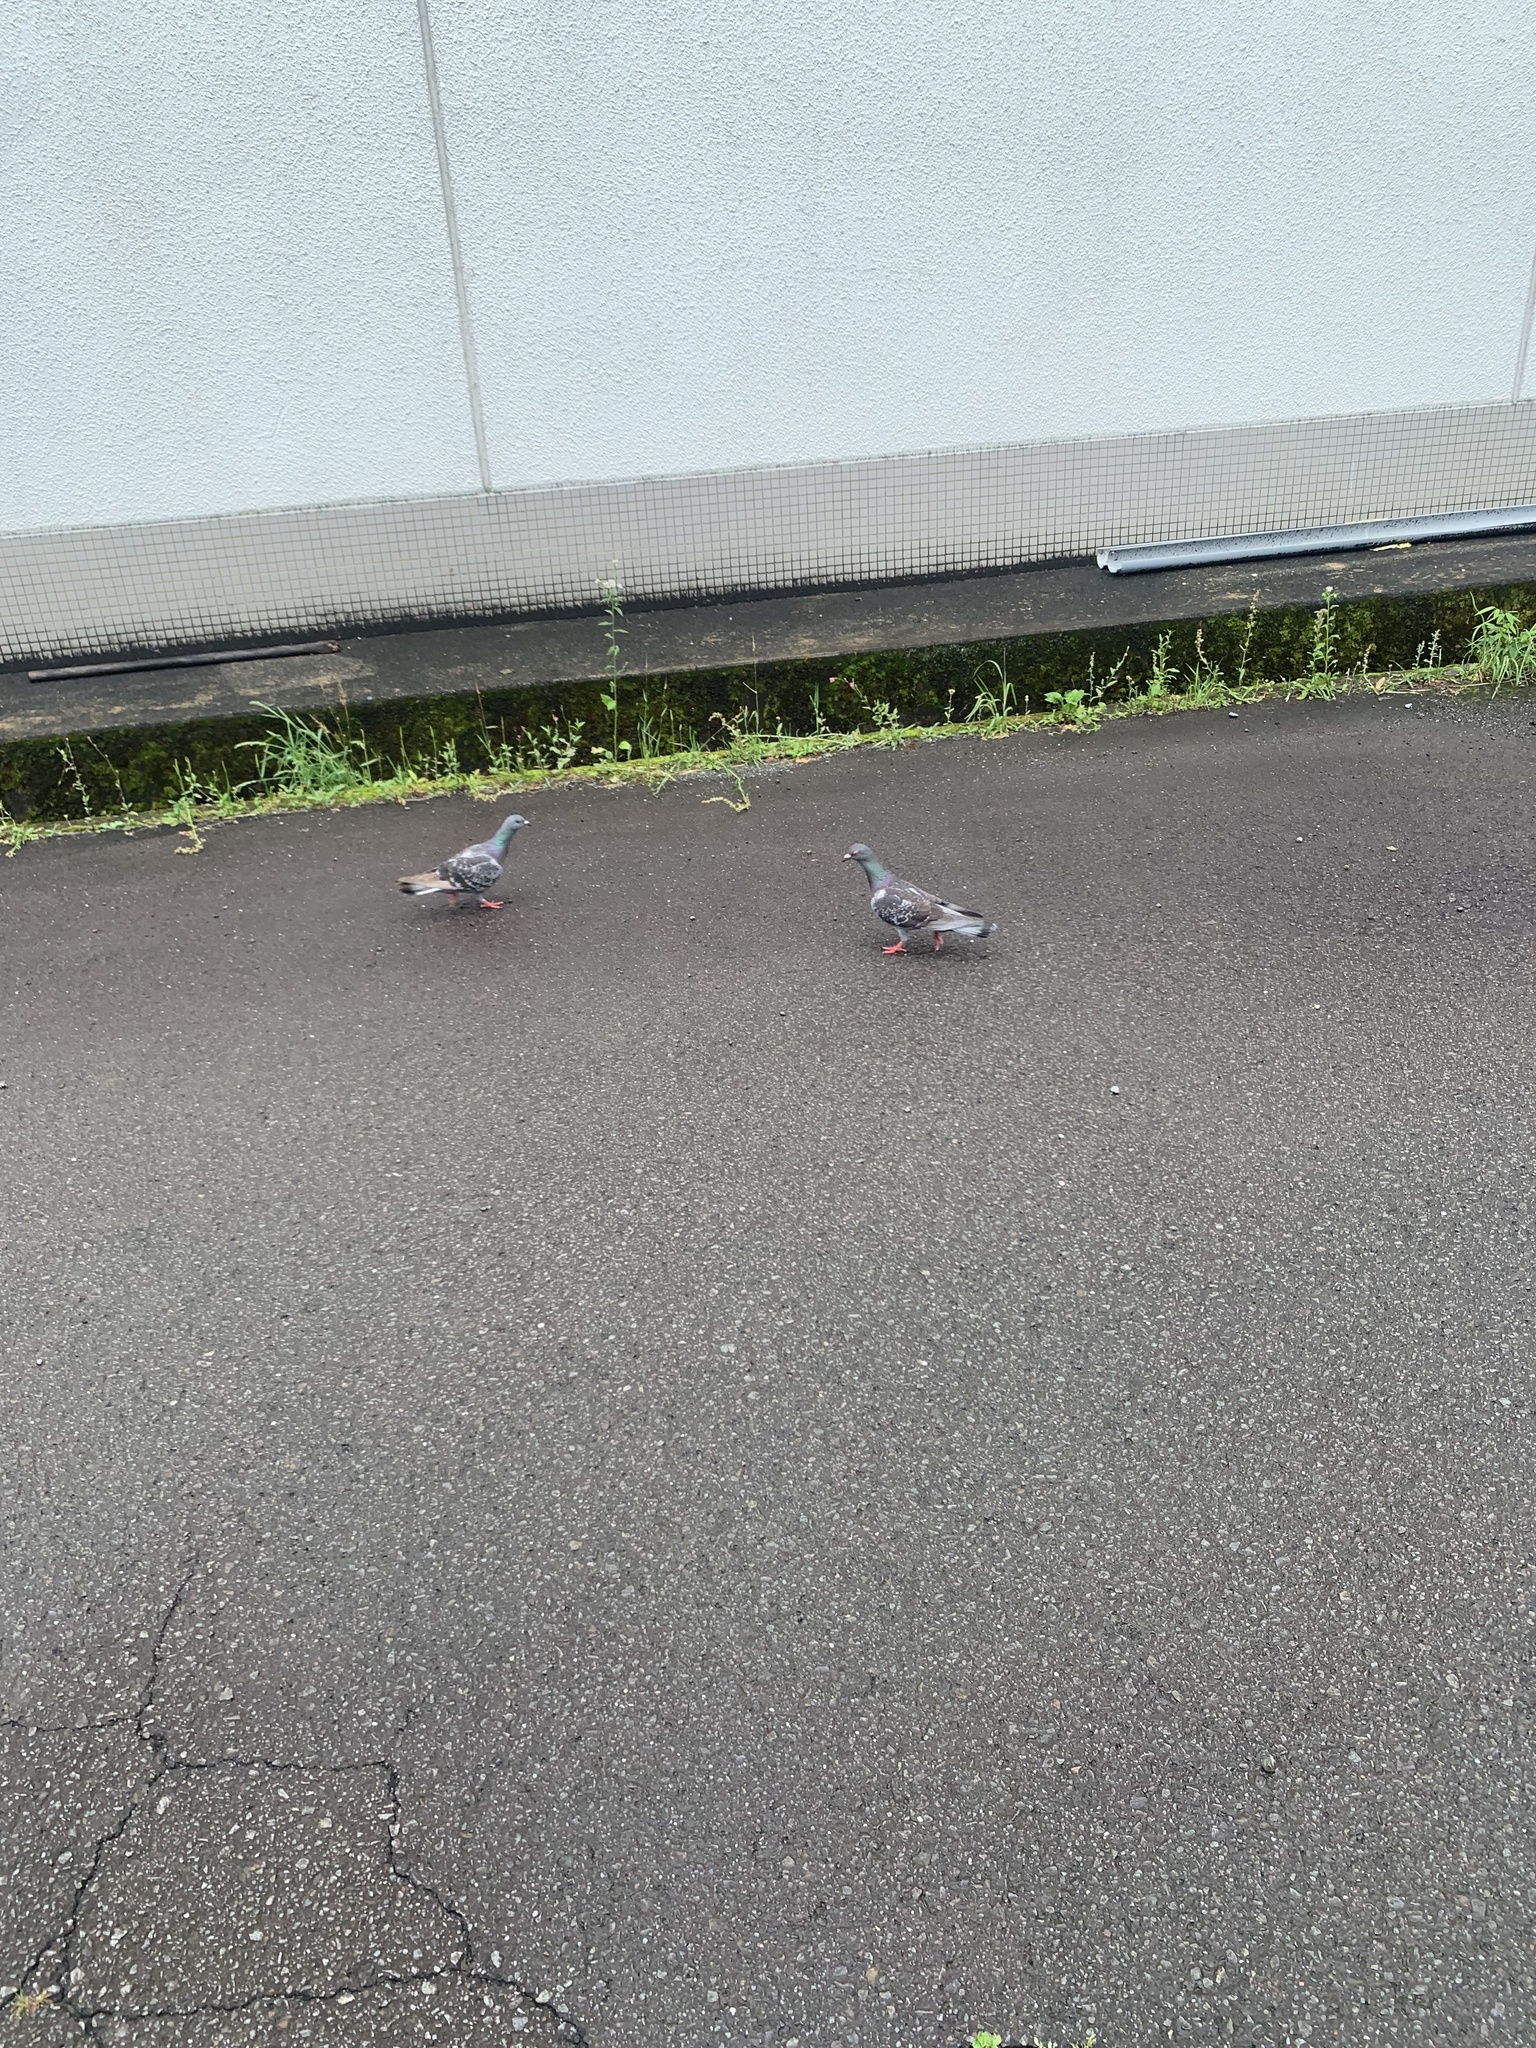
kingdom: Animalia
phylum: Chordata
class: Aves
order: Columbiformes
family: Columbidae
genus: Columba
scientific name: Columba livia
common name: Rock pigeon
